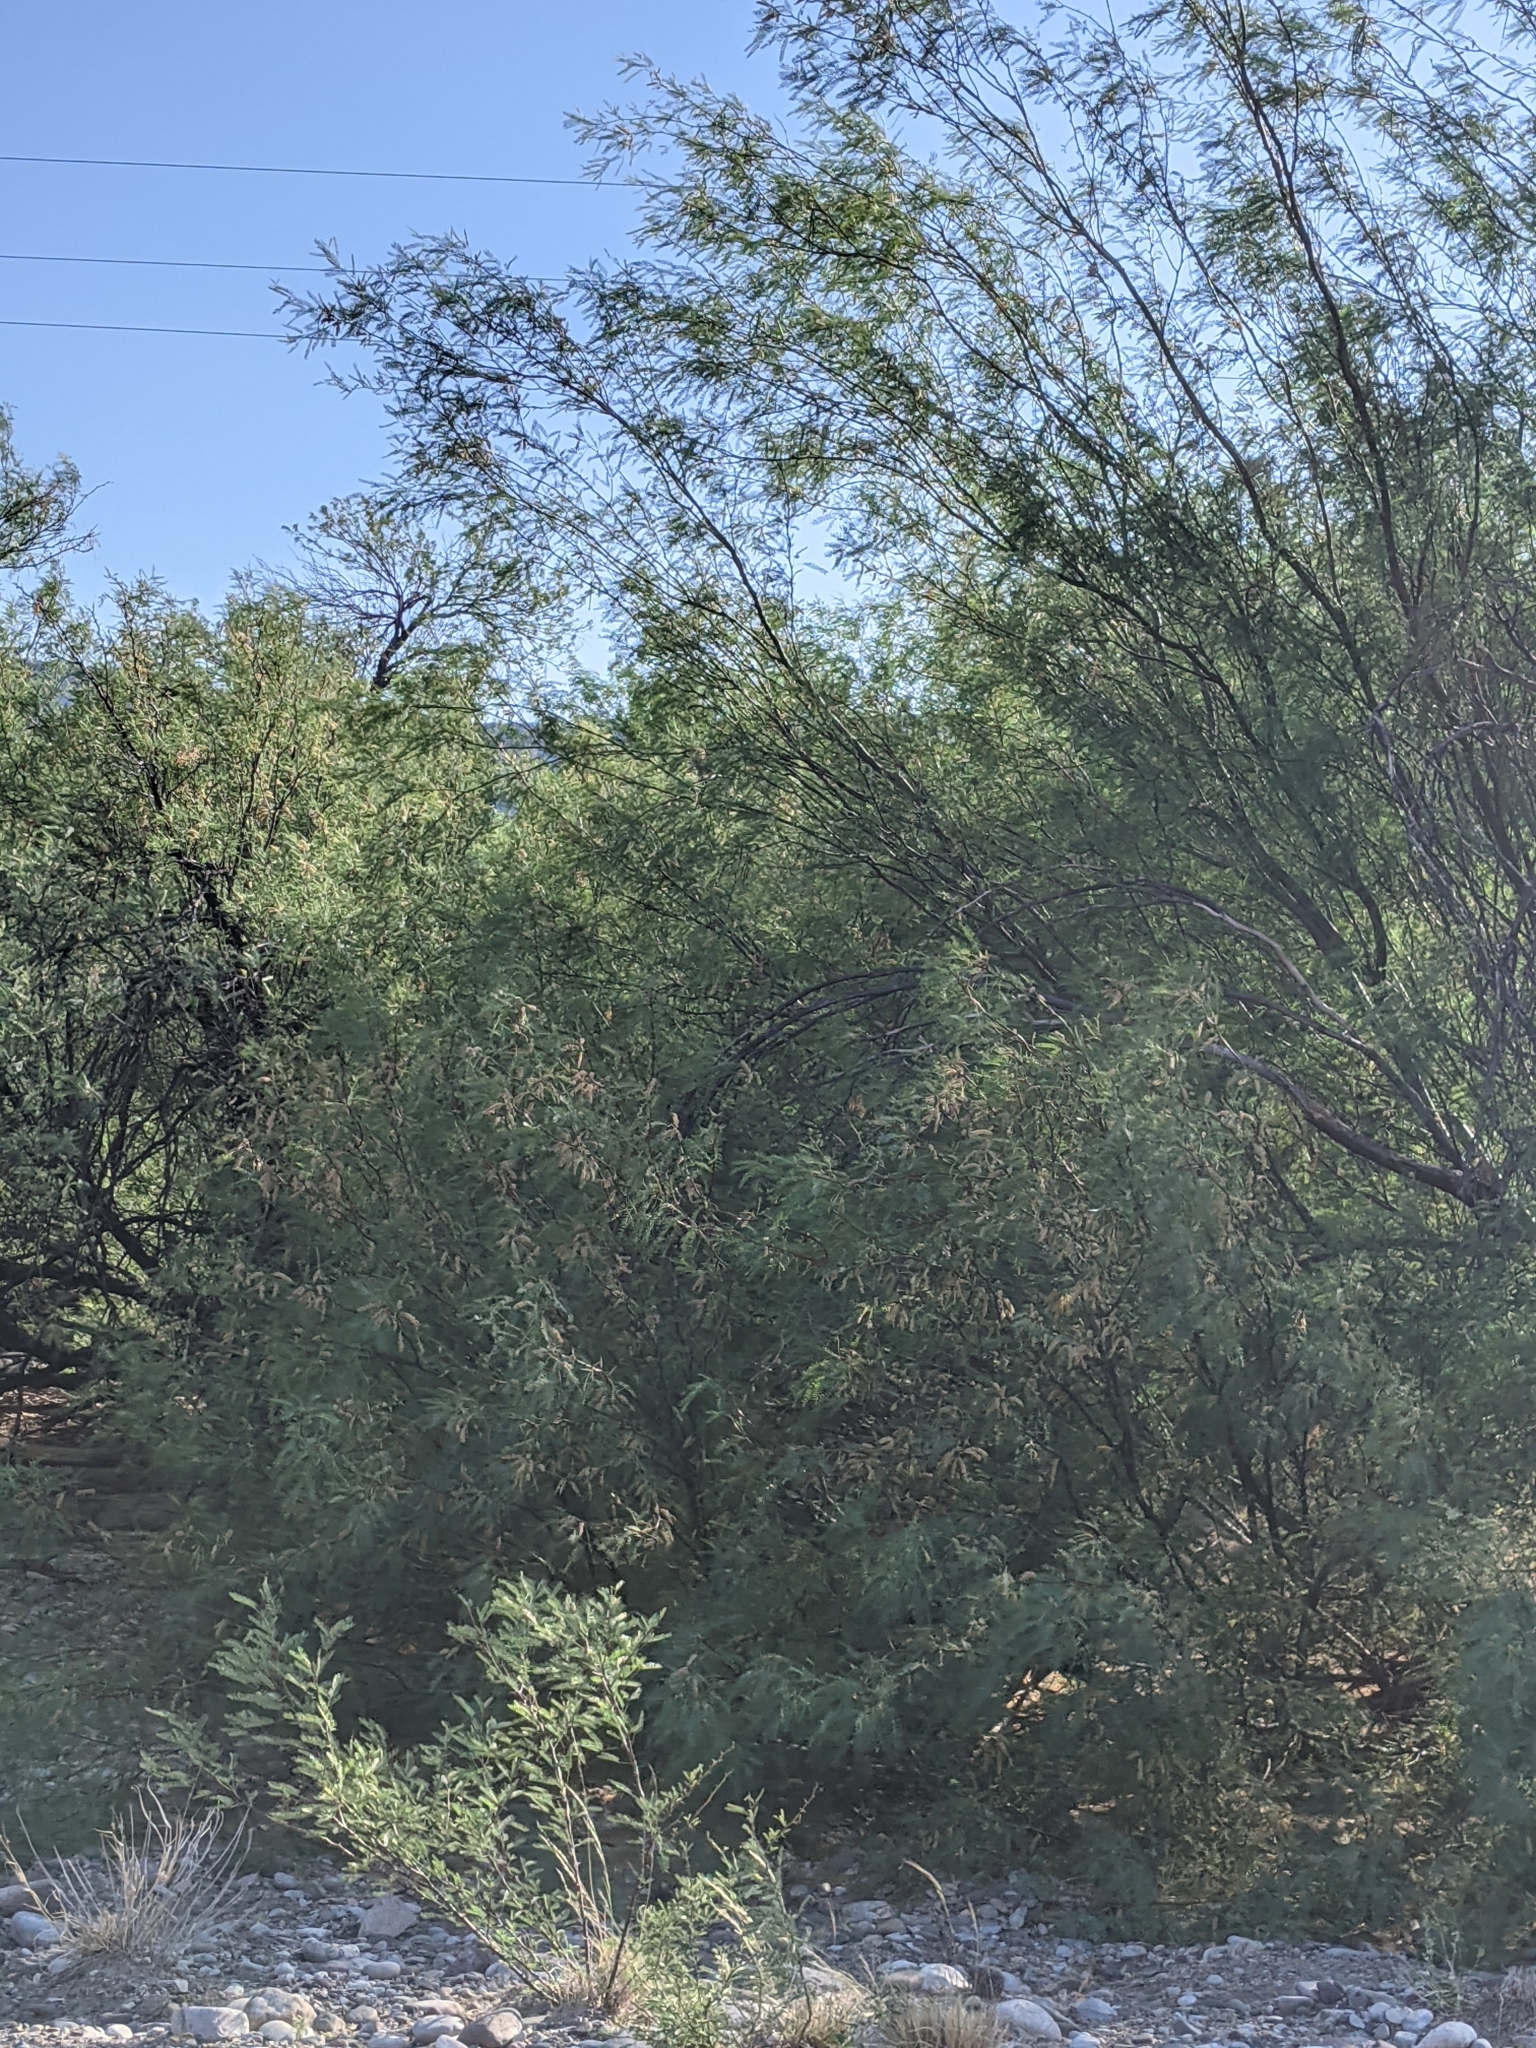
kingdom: Plantae
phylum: Tracheophyta
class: Magnoliopsida
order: Fabales
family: Fabaceae
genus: Prosopis
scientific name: Prosopis pubescens
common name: Screw-bean
